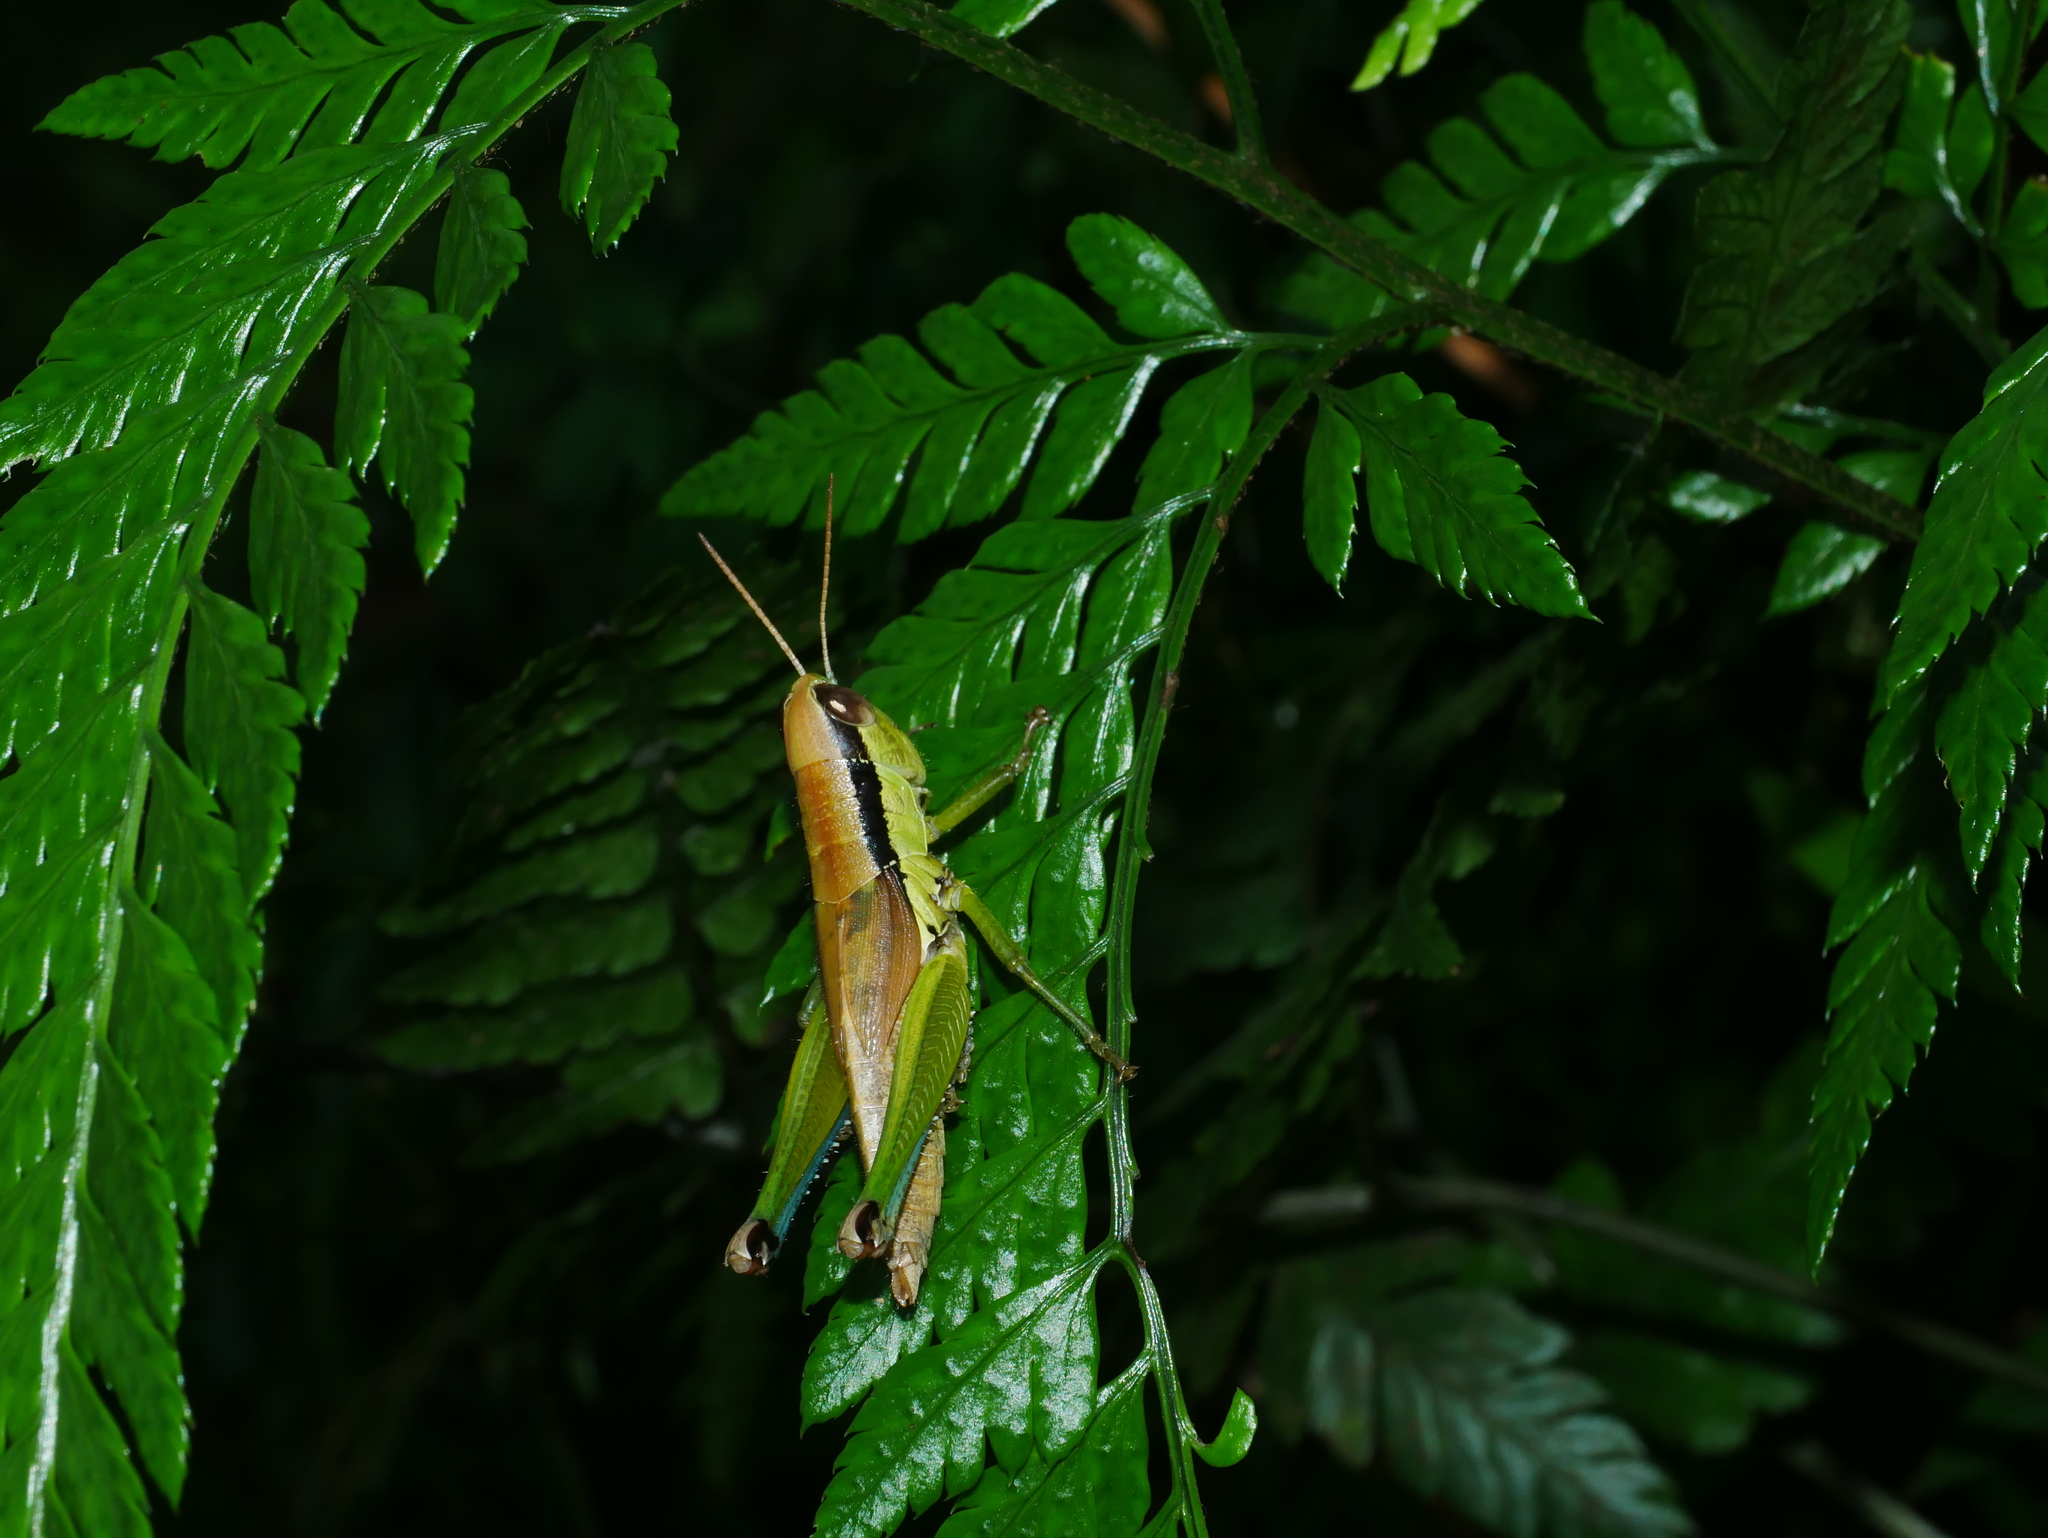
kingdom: Animalia
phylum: Arthropoda
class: Insecta
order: Orthoptera
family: Acrididae
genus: Oxya
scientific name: Oxya yezoensis
